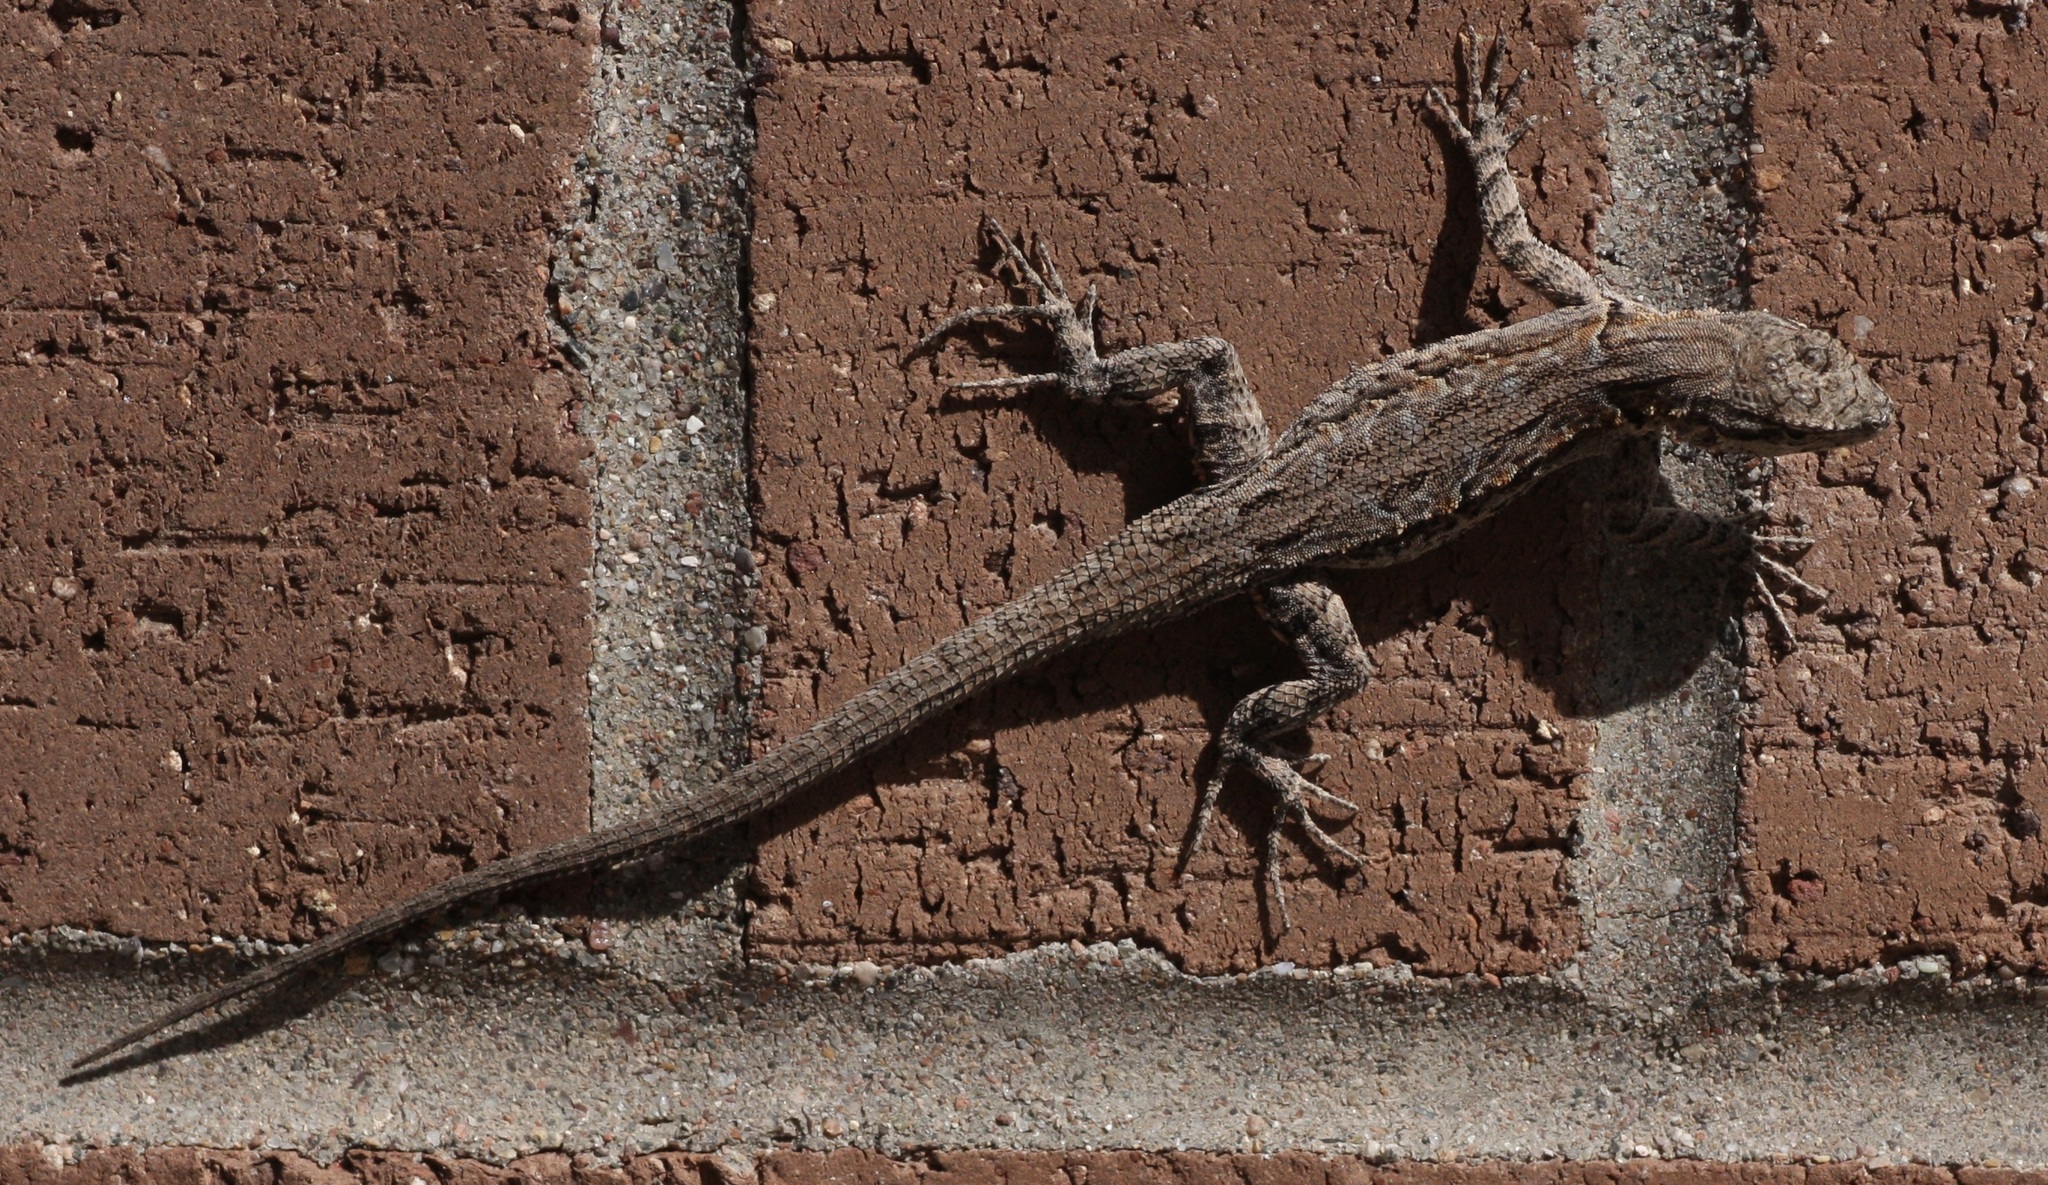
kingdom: Animalia
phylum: Chordata
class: Squamata
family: Phrynosomatidae
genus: Urosaurus
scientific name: Urosaurus ornatus
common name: Ornate tree lizard
